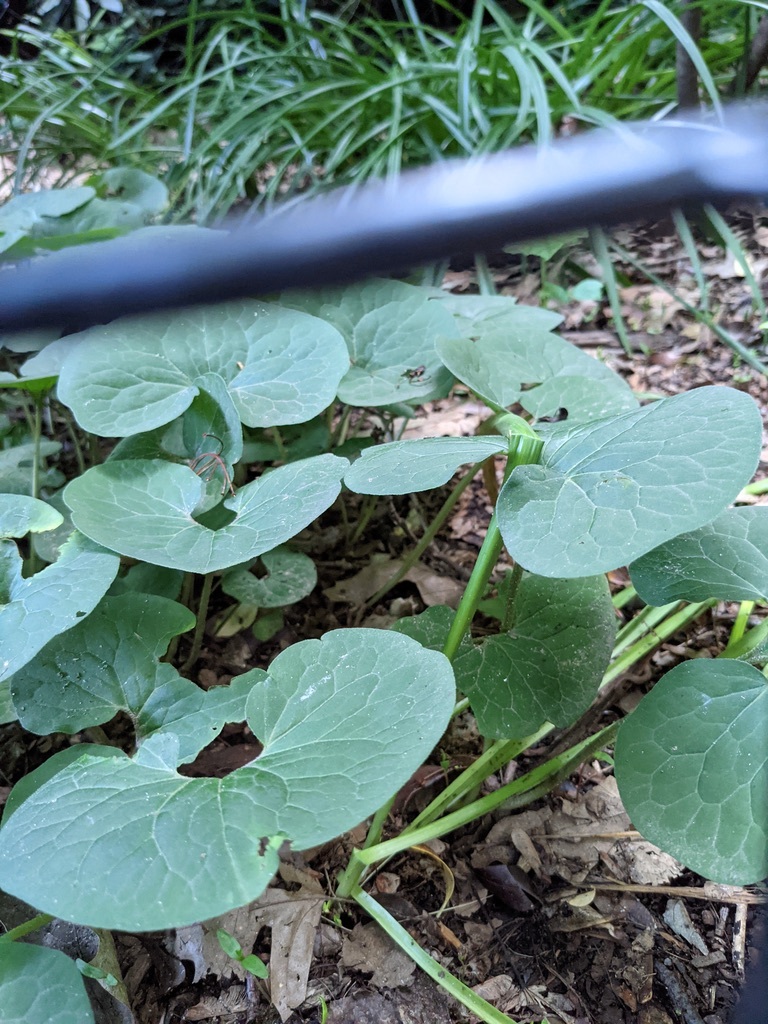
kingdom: Plantae
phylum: Tracheophyta
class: Magnoliopsida
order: Piperales
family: Aristolochiaceae
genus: Asarum
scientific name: Asarum canadense
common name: Wild ginger
